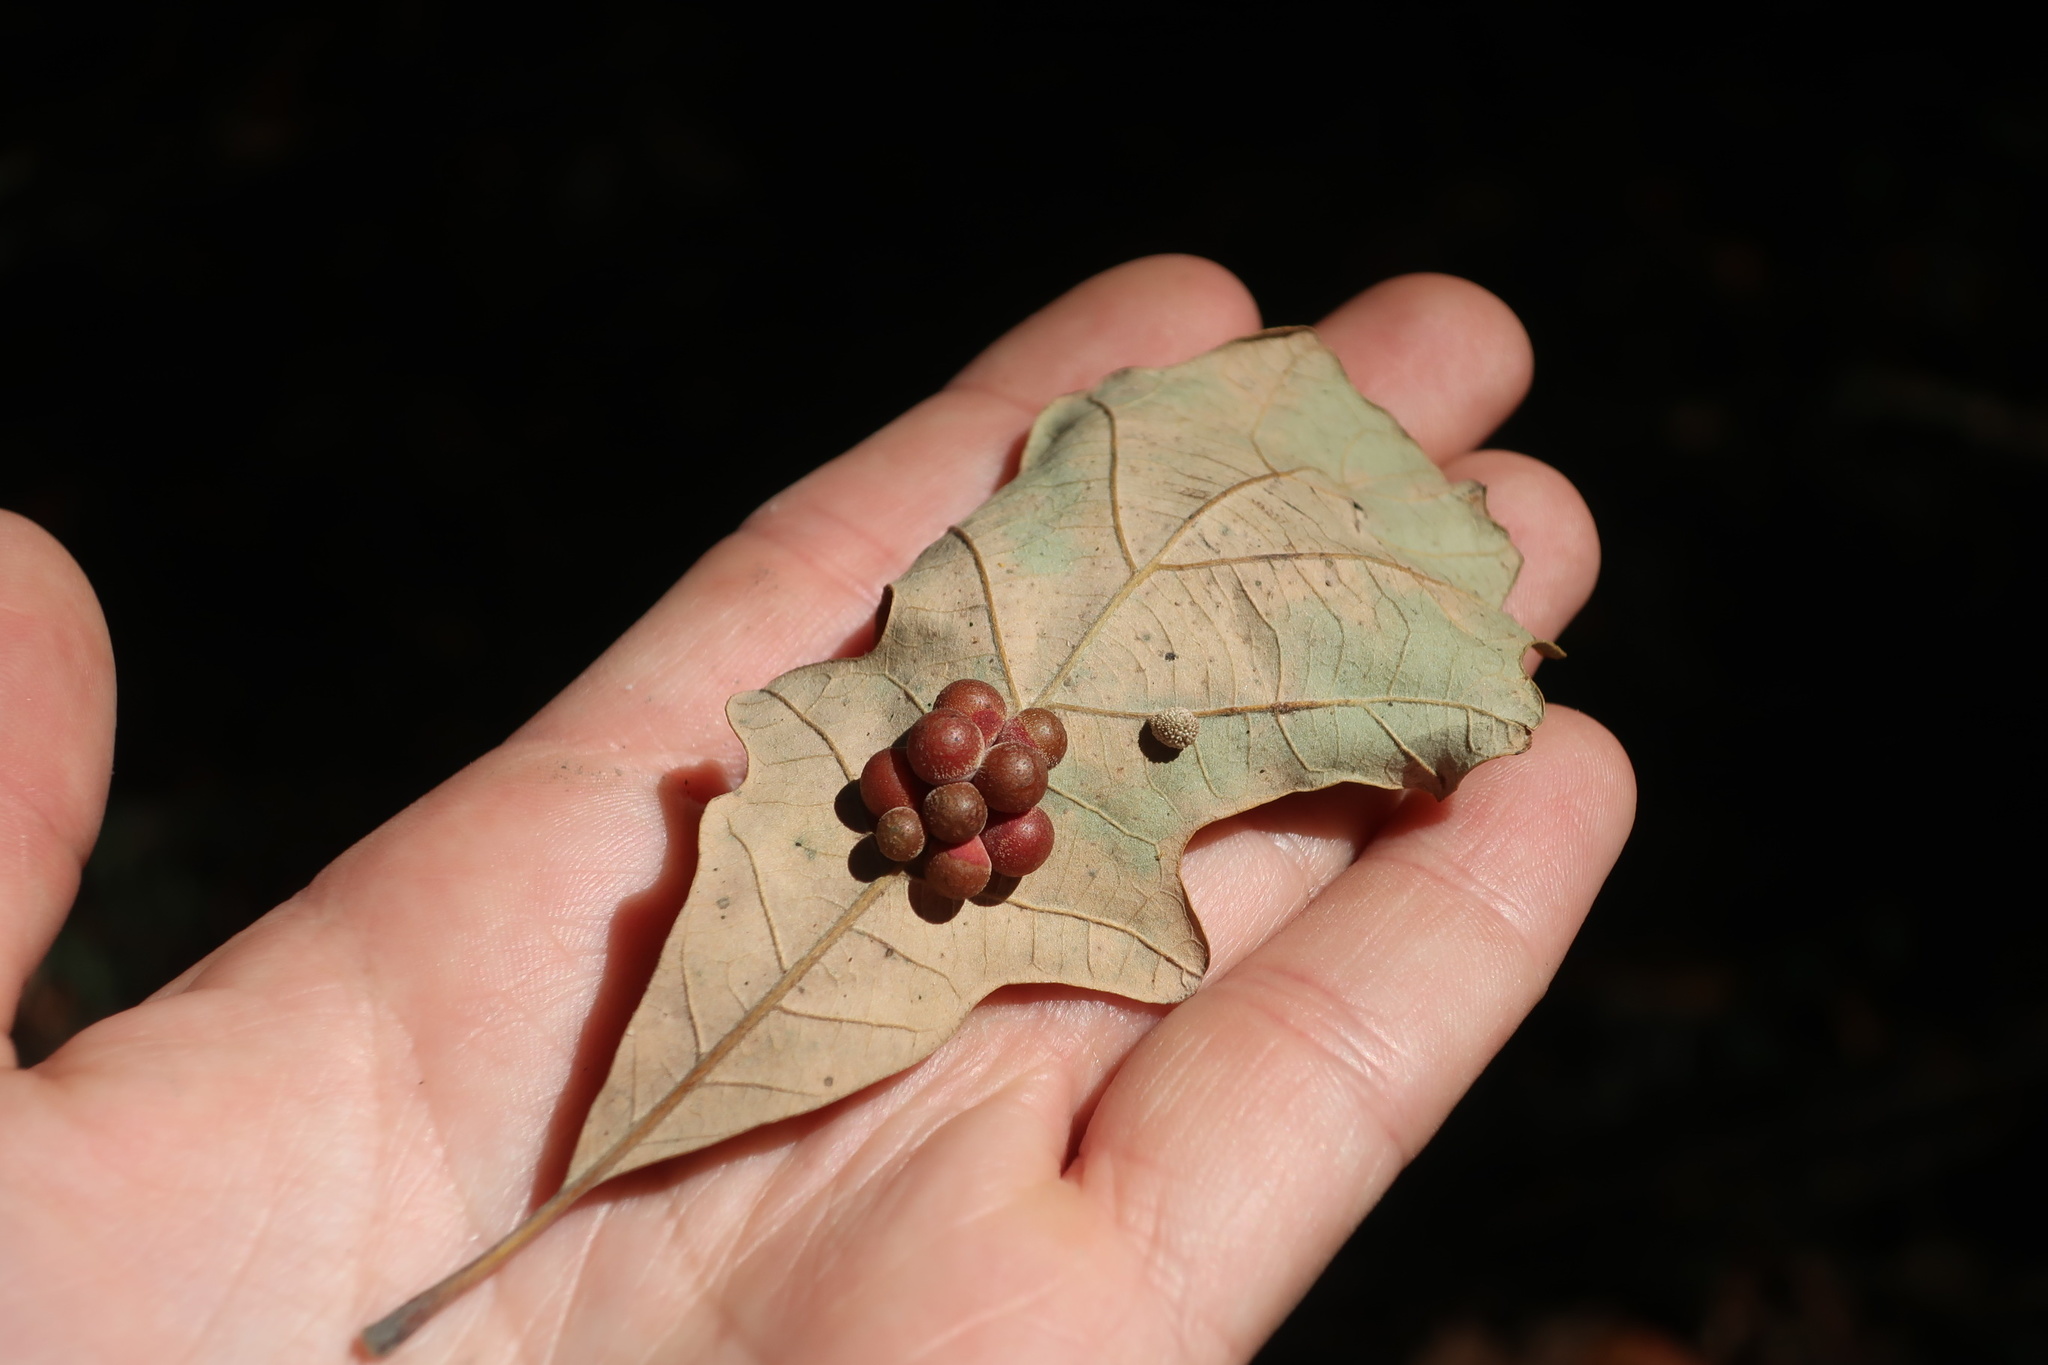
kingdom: Animalia
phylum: Arthropoda
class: Insecta
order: Hymenoptera
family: Cynipidae
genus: Acraspis
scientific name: Acraspis quercushirta
